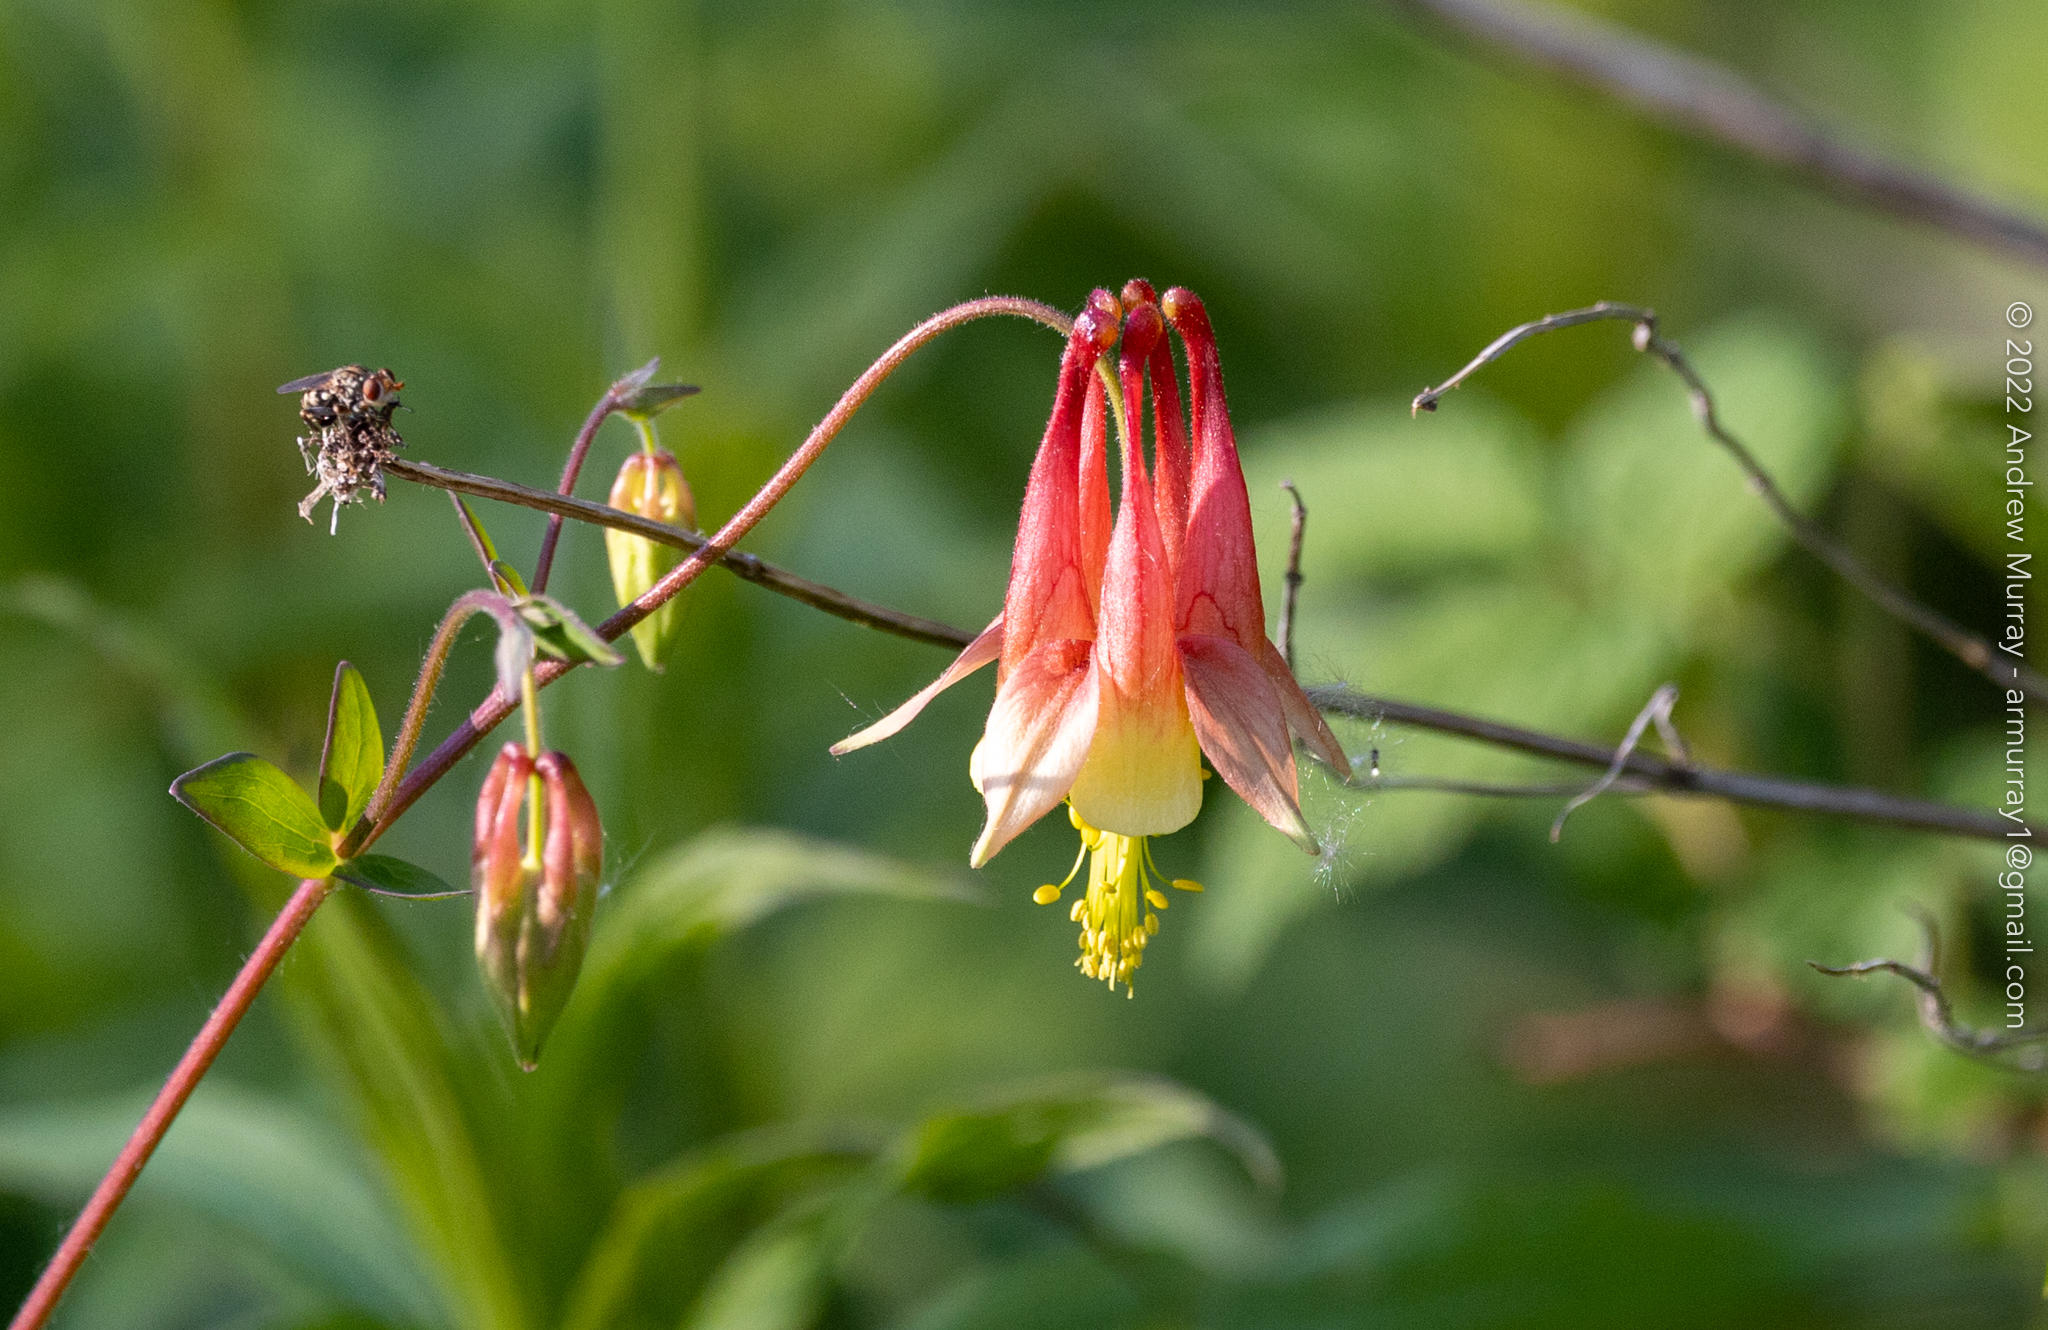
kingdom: Plantae
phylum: Tracheophyta
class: Magnoliopsida
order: Ranunculales
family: Ranunculaceae
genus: Aquilegia
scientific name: Aquilegia canadensis
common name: American columbine
